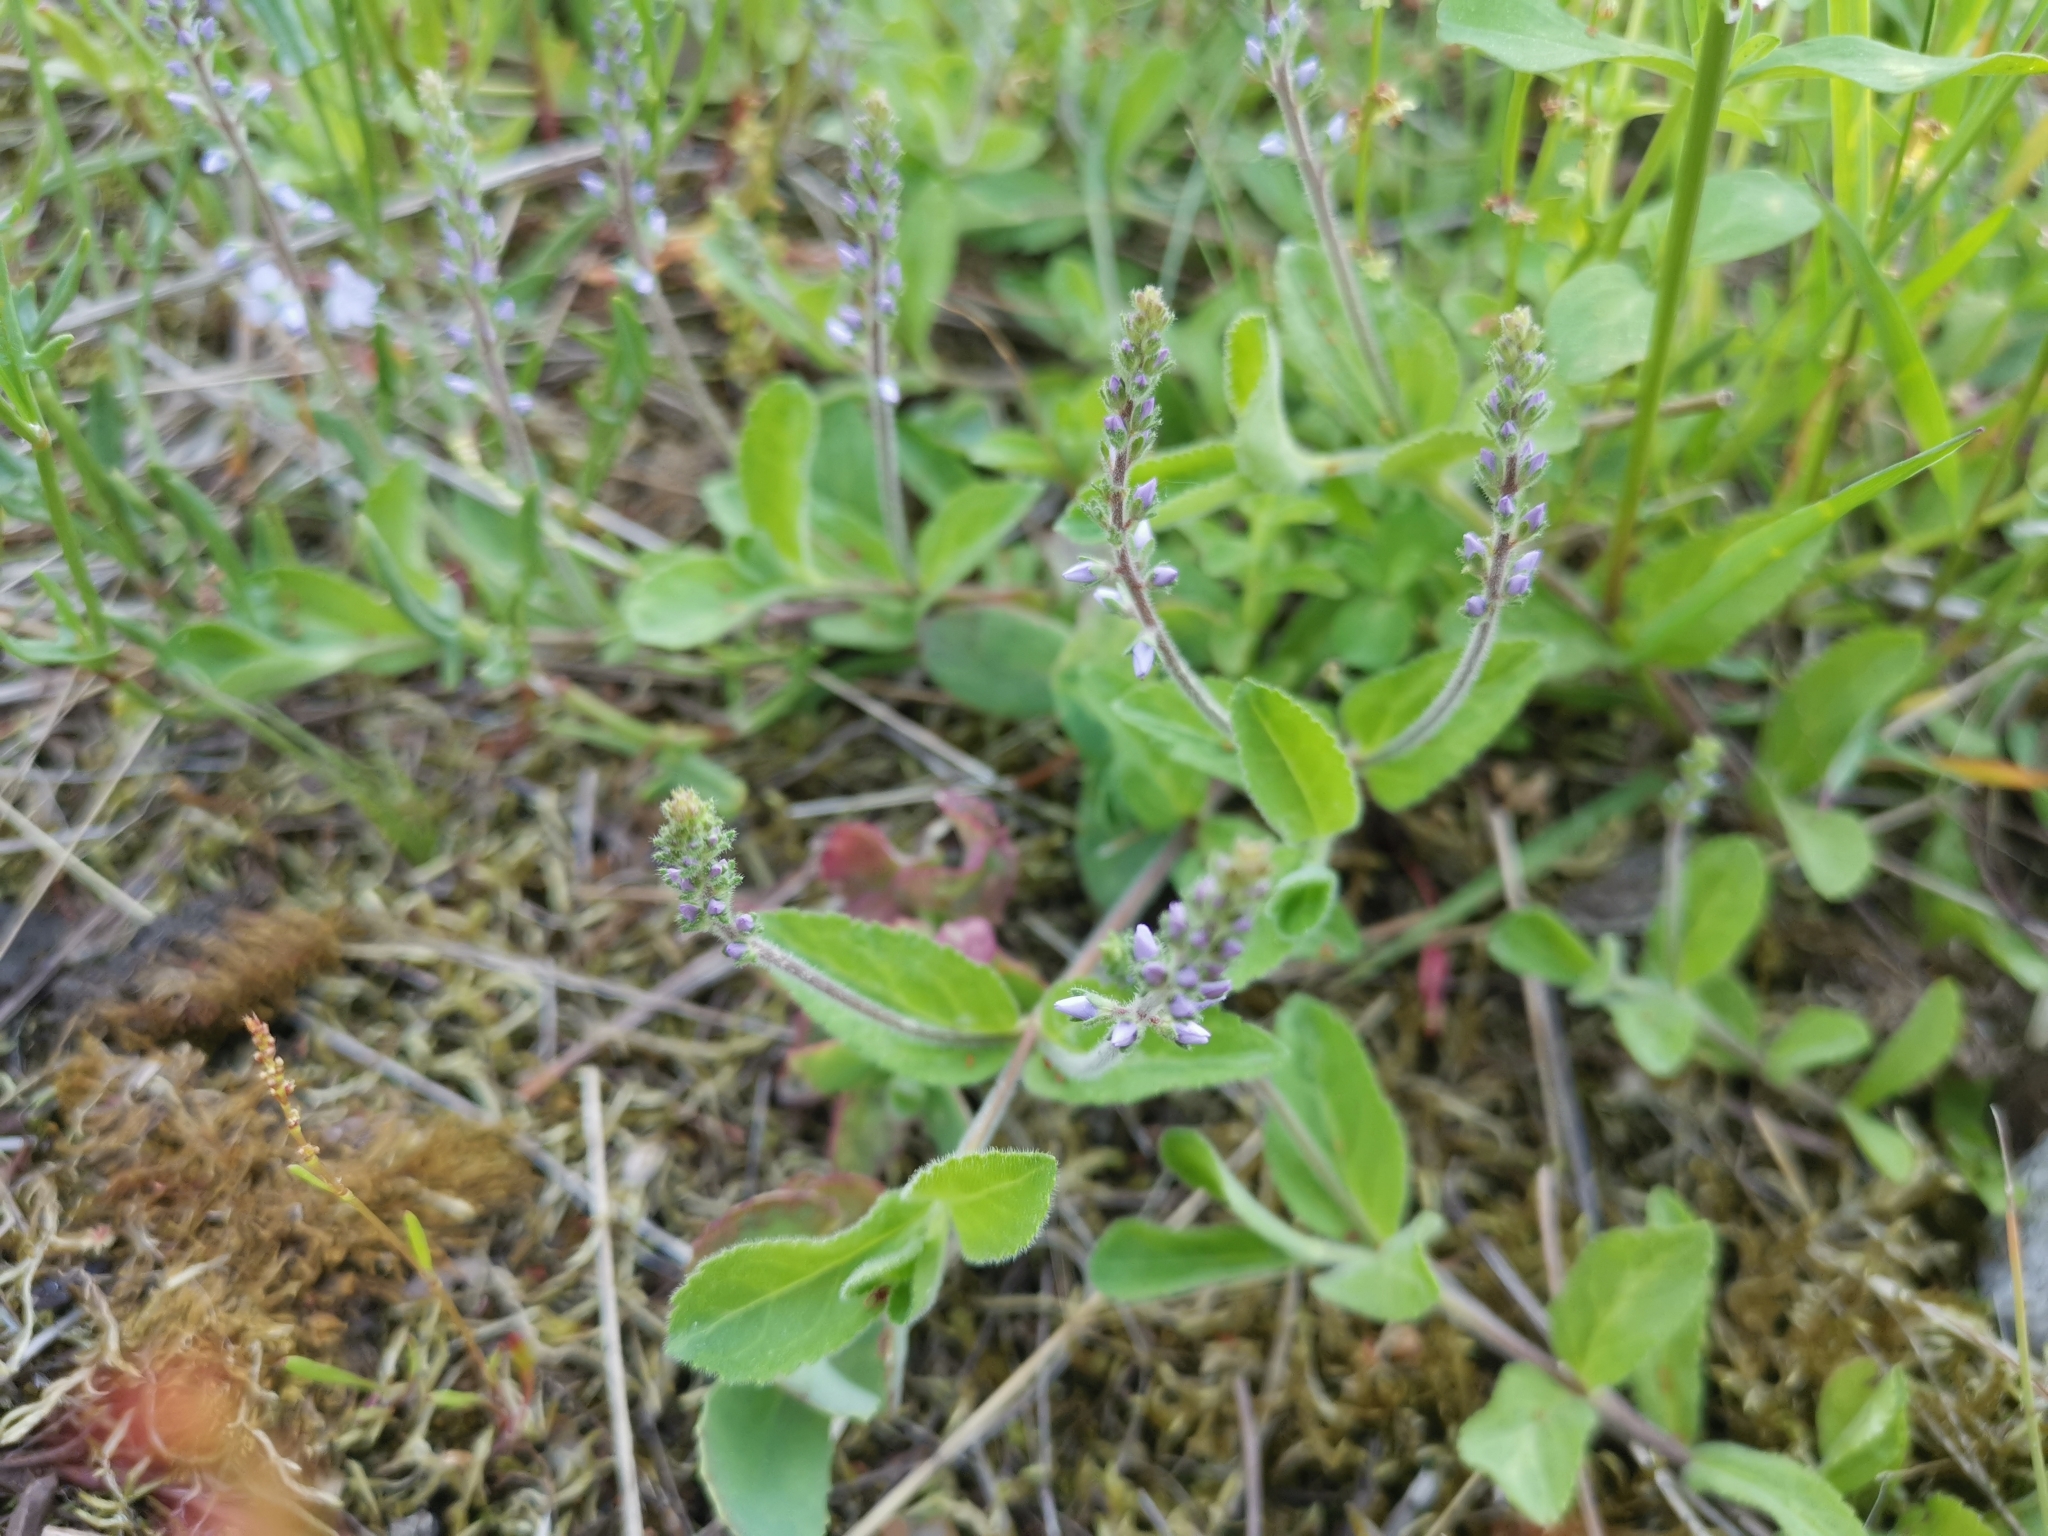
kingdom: Plantae
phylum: Tracheophyta
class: Magnoliopsida
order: Lamiales
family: Plantaginaceae
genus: Veronica
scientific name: Veronica officinalis
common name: Common speedwell
